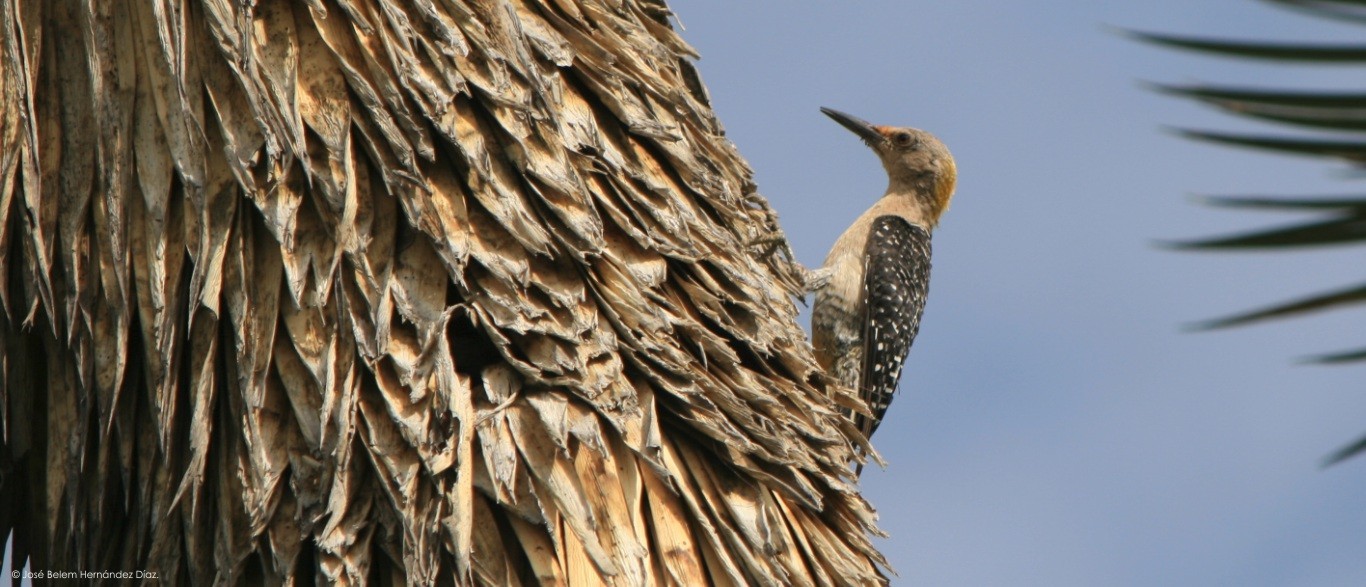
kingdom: Animalia
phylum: Chordata
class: Aves
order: Piciformes
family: Picidae
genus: Melanerpes
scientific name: Melanerpes aurifrons
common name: Golden-fronted woodpecker
